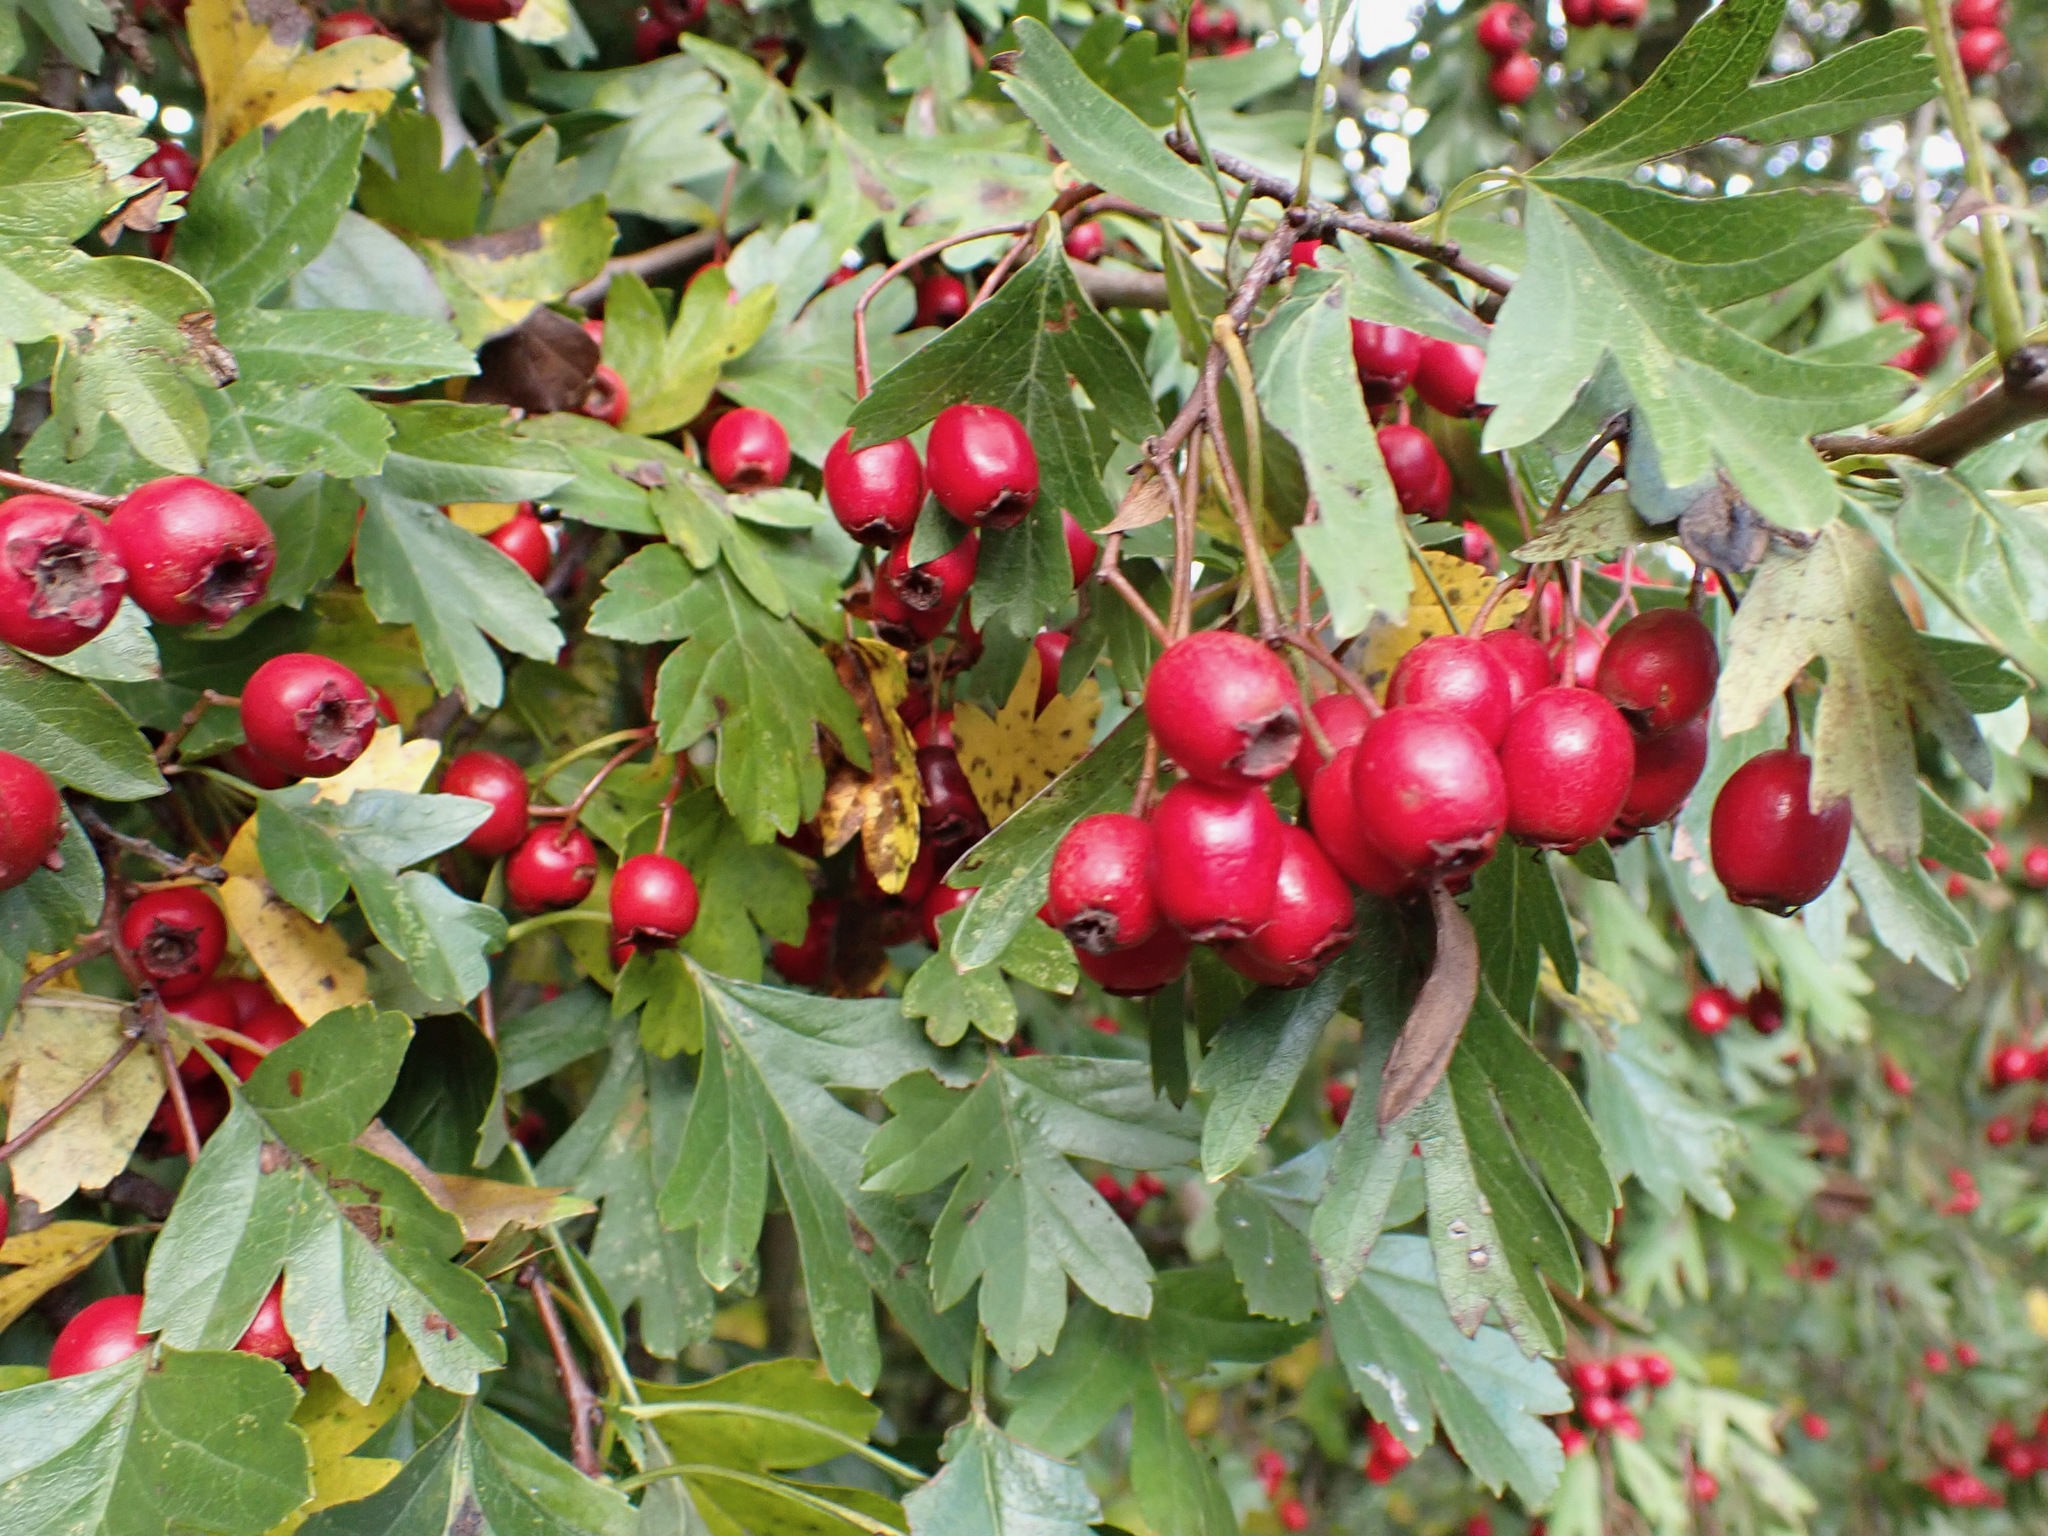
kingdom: Plantae
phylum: Tracheophyta
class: Magnoliopsida
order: Rosales
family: Rosaceae
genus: Crataegus
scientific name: Crataegus monogyna
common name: Hawthorn
